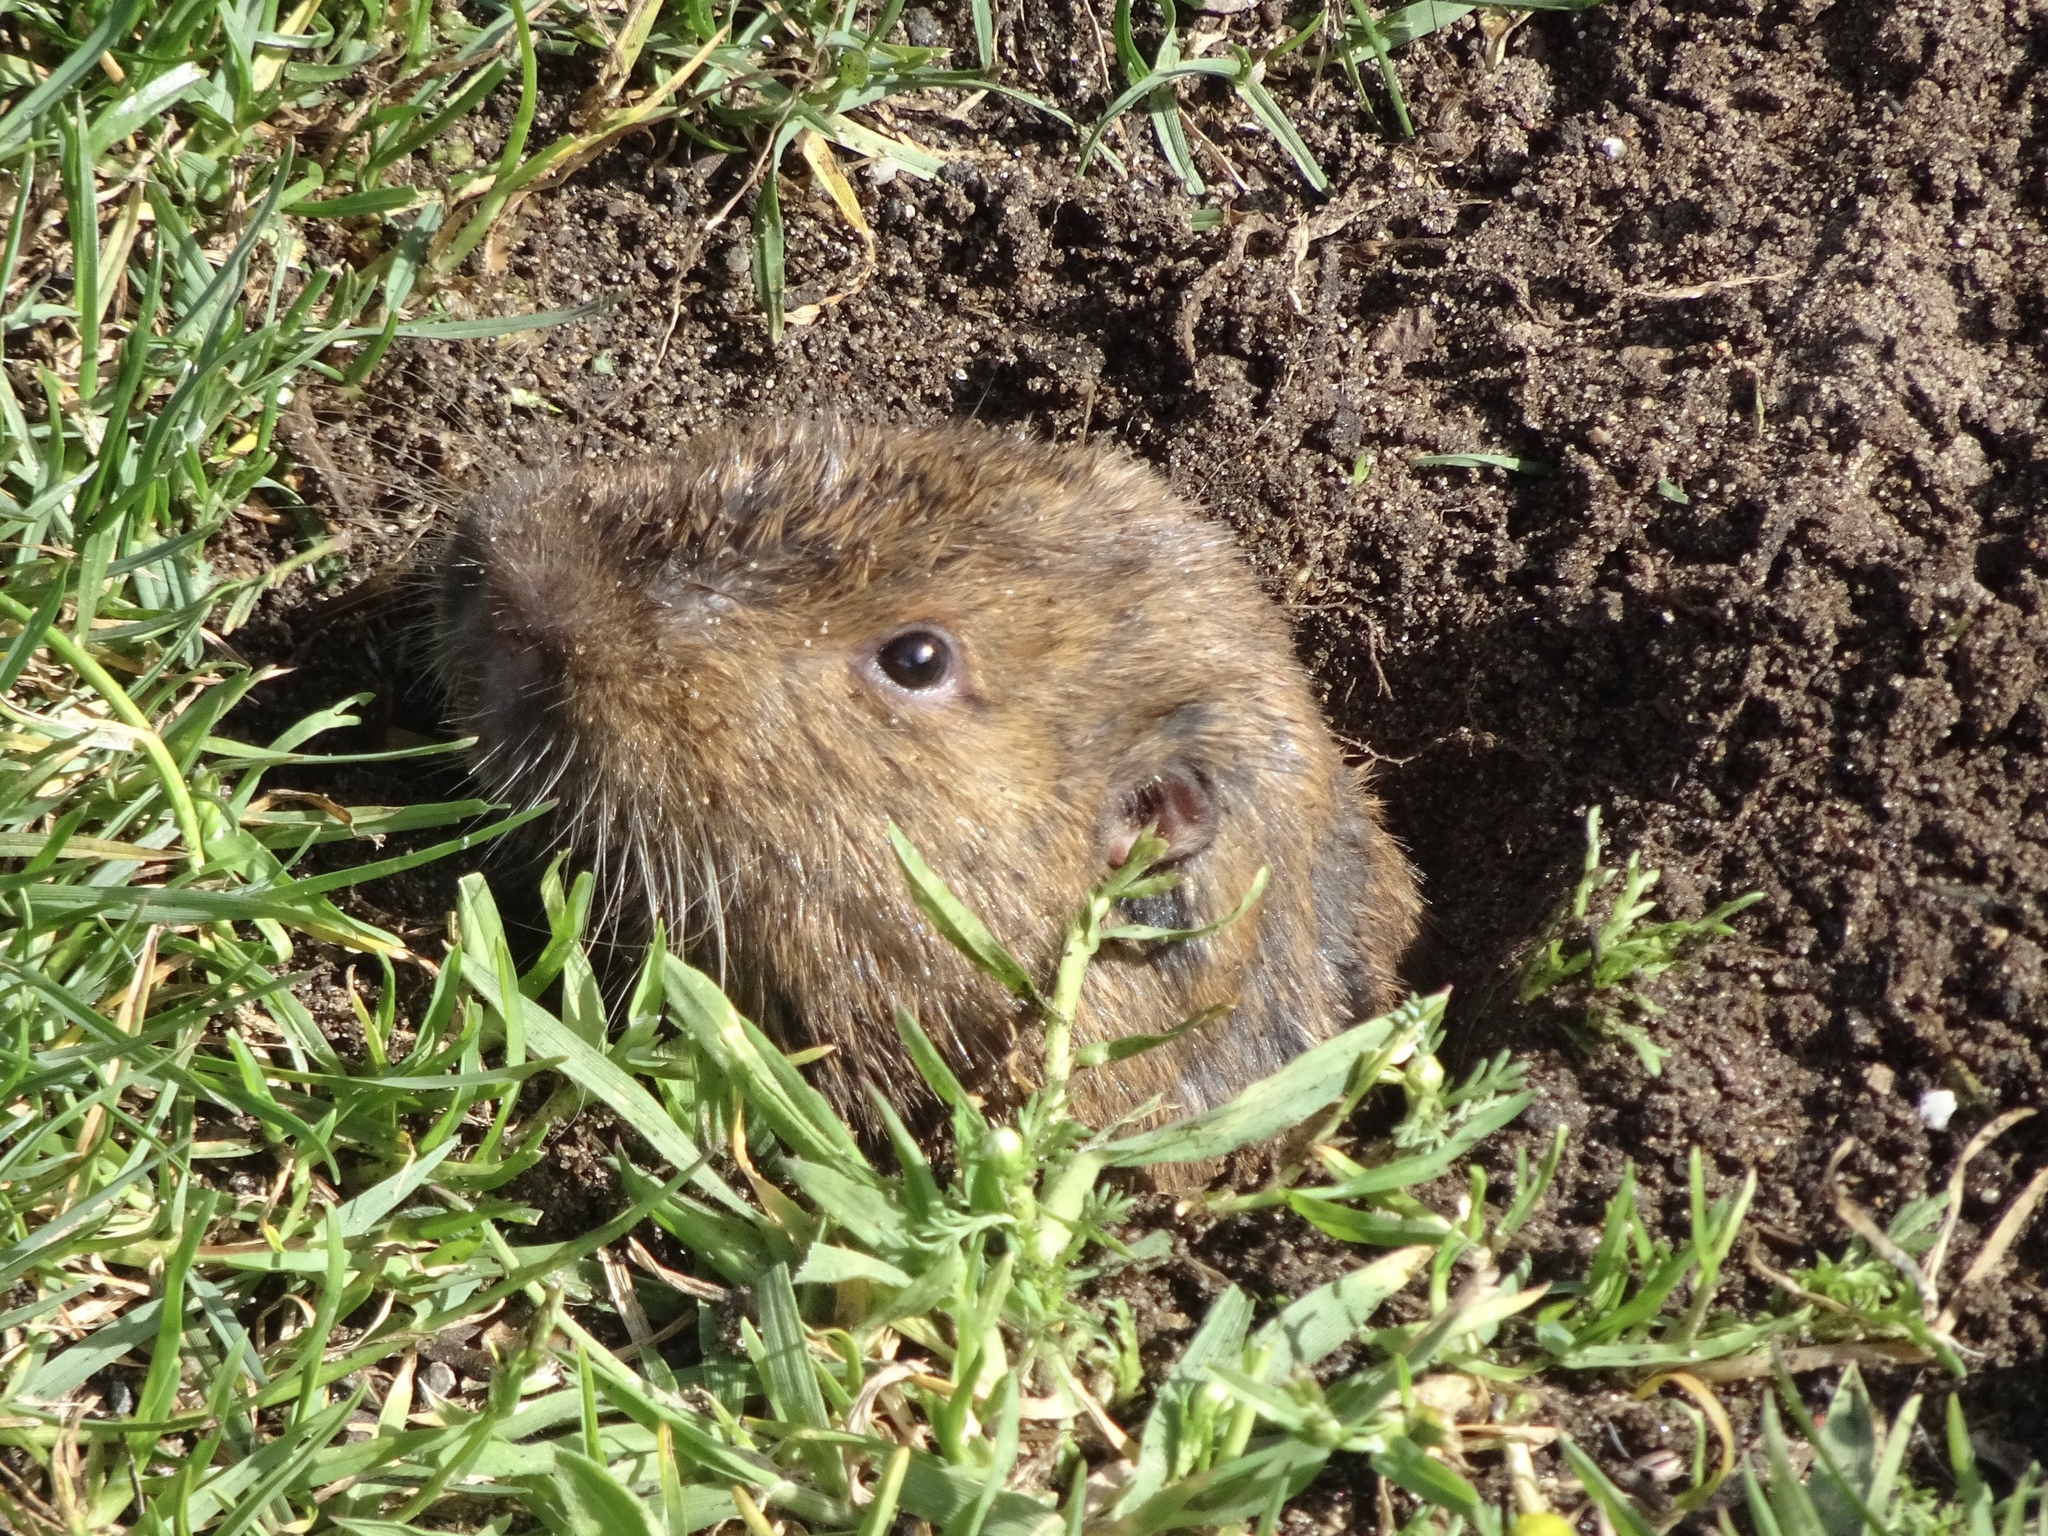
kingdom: Animalia
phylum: Chordata
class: Mammalia
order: Rodentia
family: Geomyidae
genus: Thomomys
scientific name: Thomomys bottae
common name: Botta's pocket gopher
